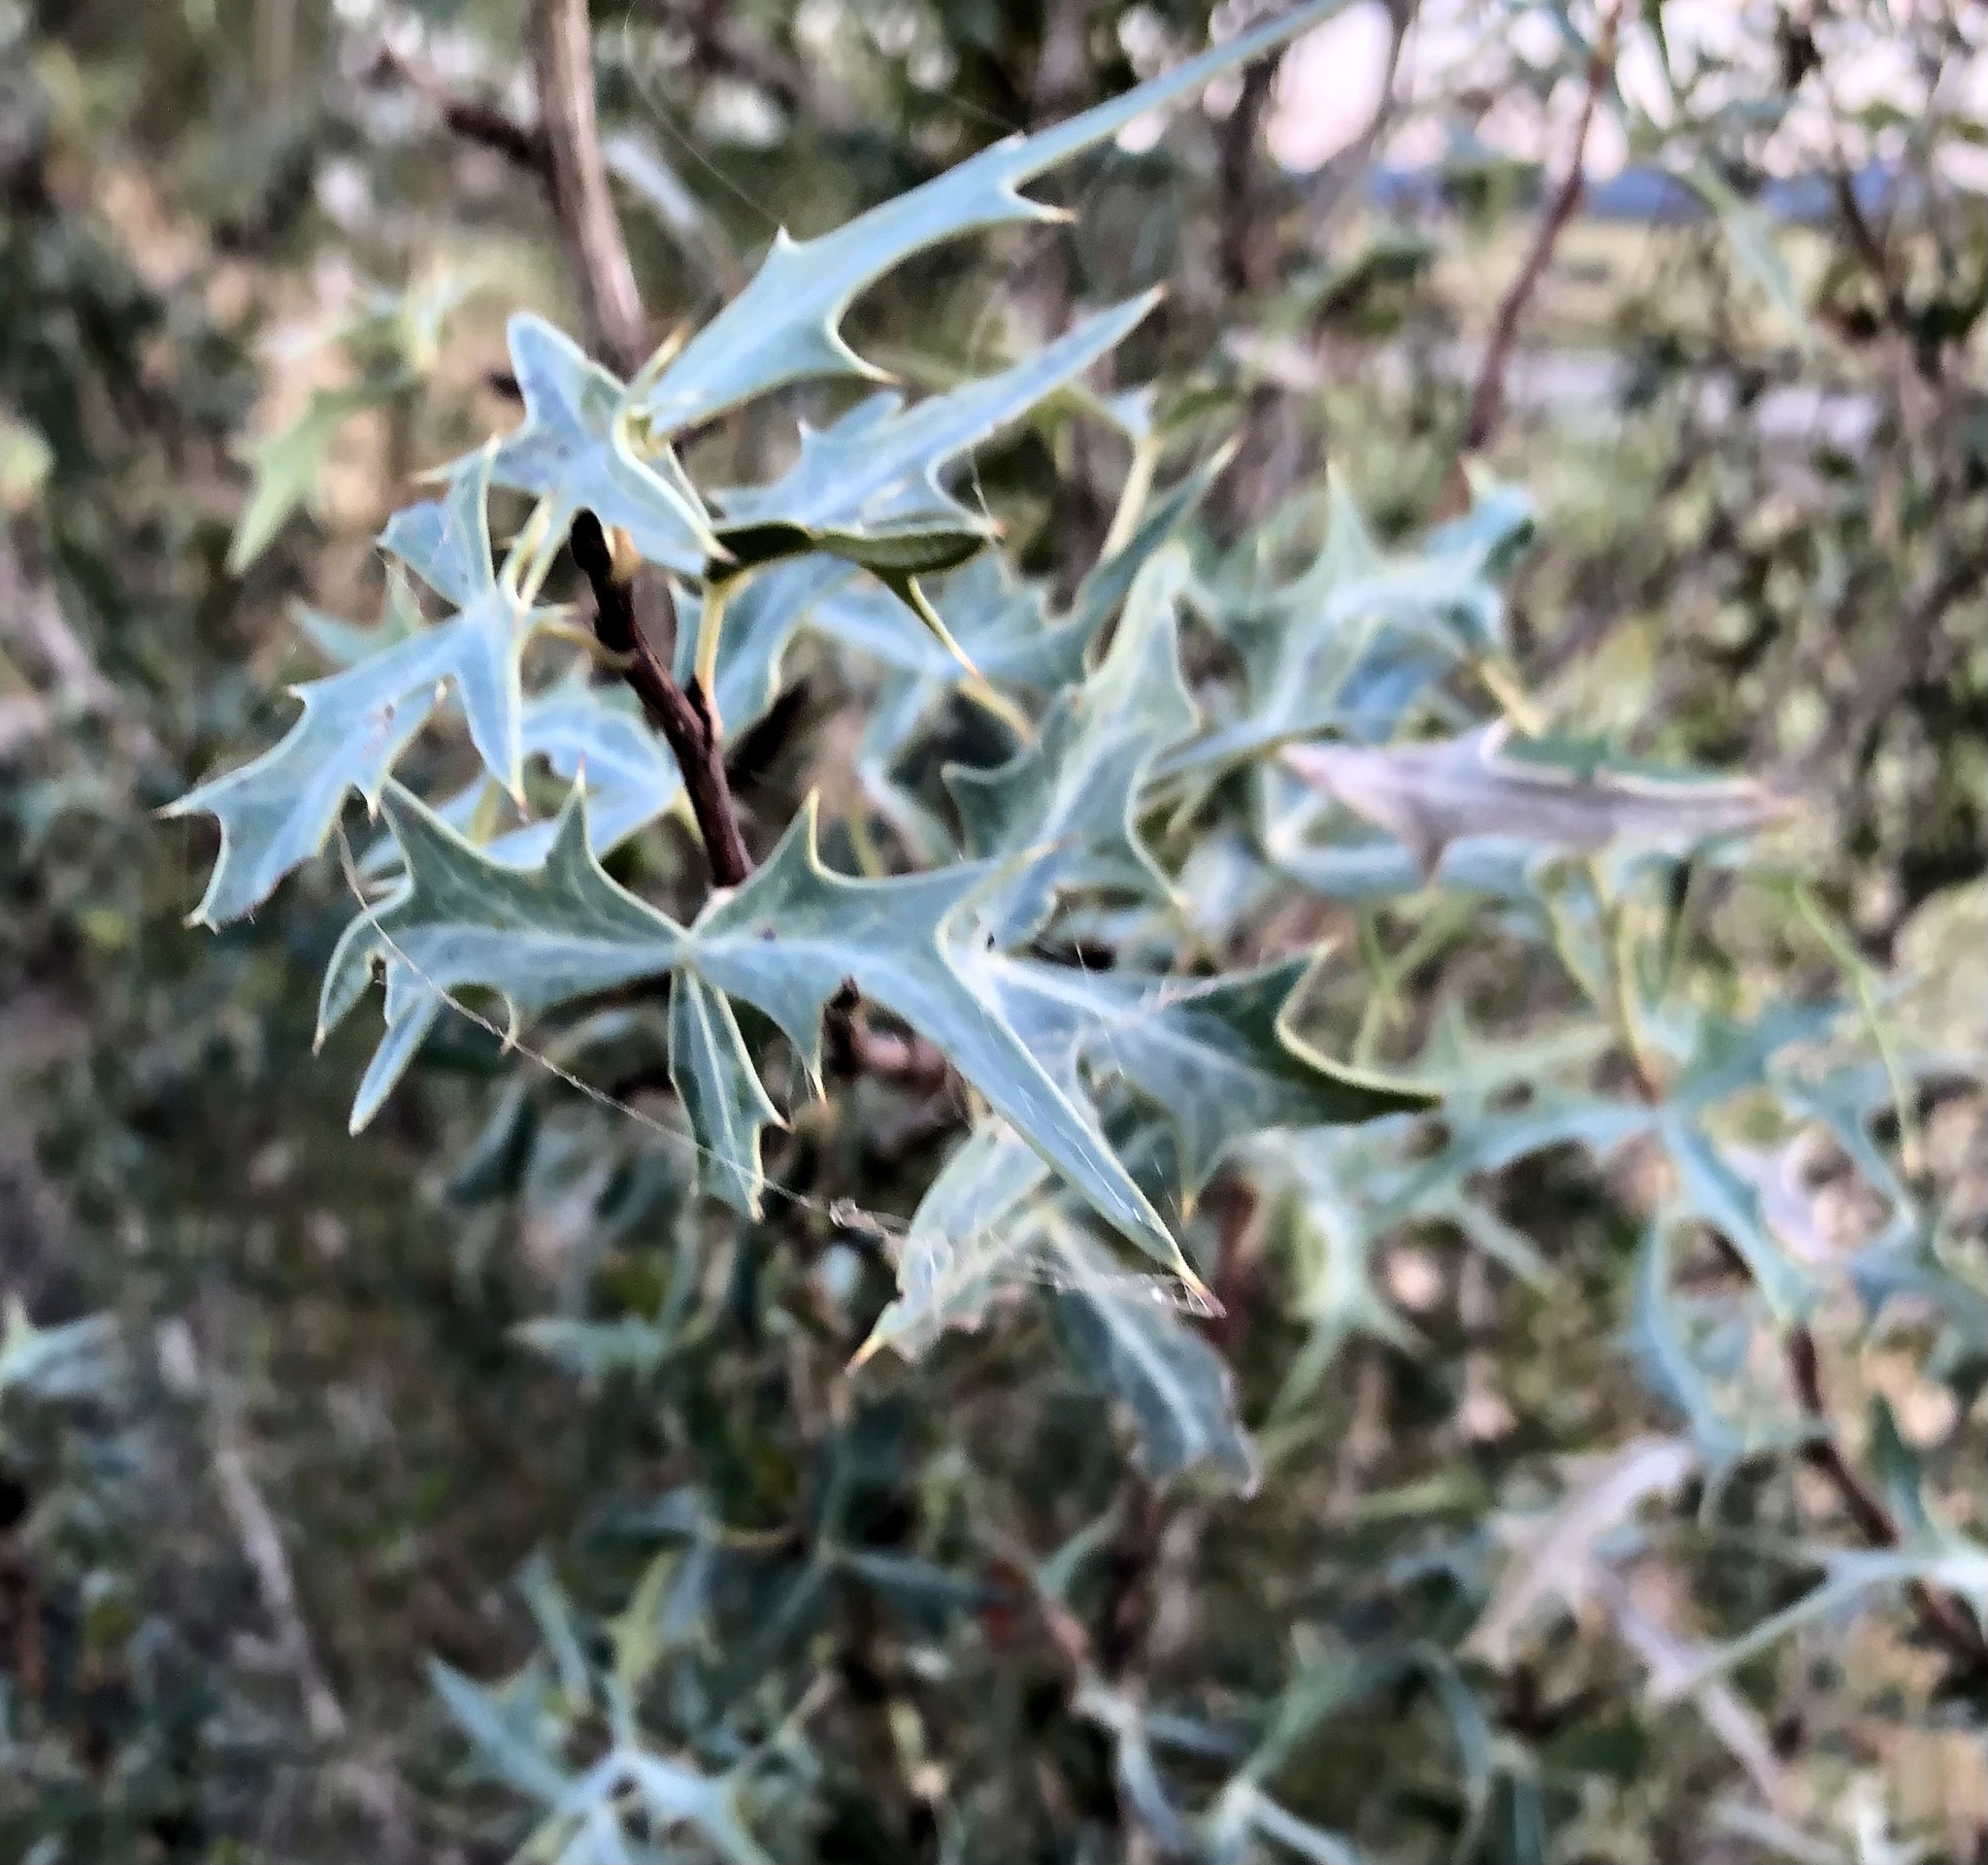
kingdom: Plantae
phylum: Tracheophyta
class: Magnoliopsida
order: Ranunculales
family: Berberidaceae
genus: Alloberberis
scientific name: Alloberberis trifoliolata
